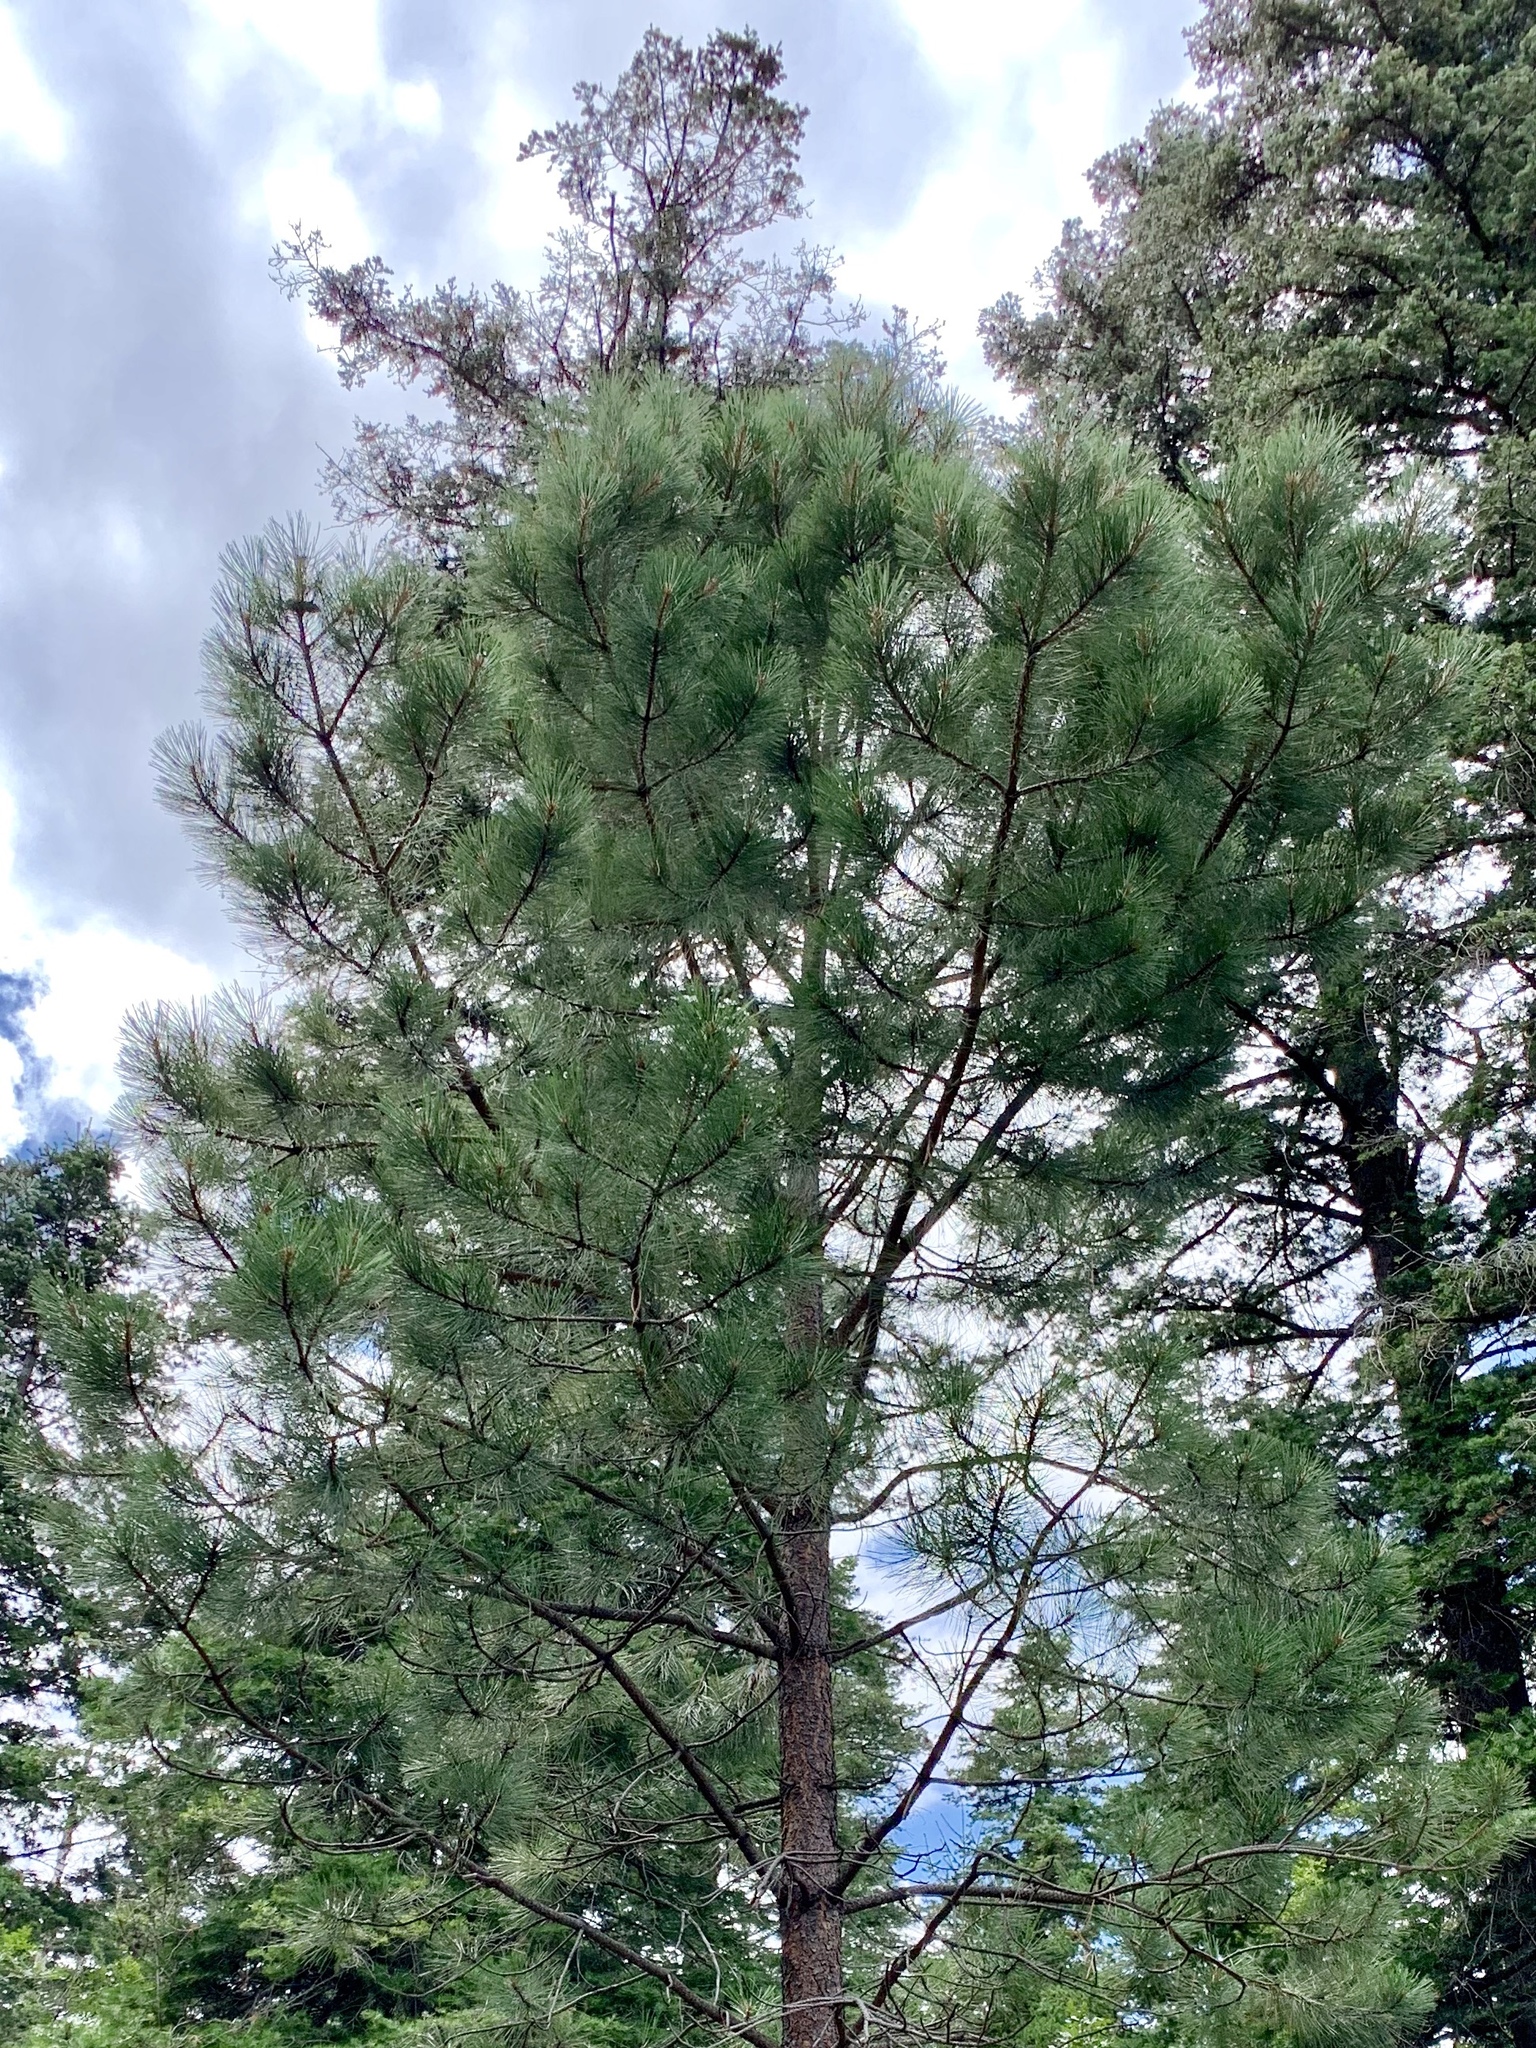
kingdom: Plantae
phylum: Tracheophyta
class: Pinopsida
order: Pinales
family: Pinaceae
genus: Pinus
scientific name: Pinus ponderosa
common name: Western yellow-pine
